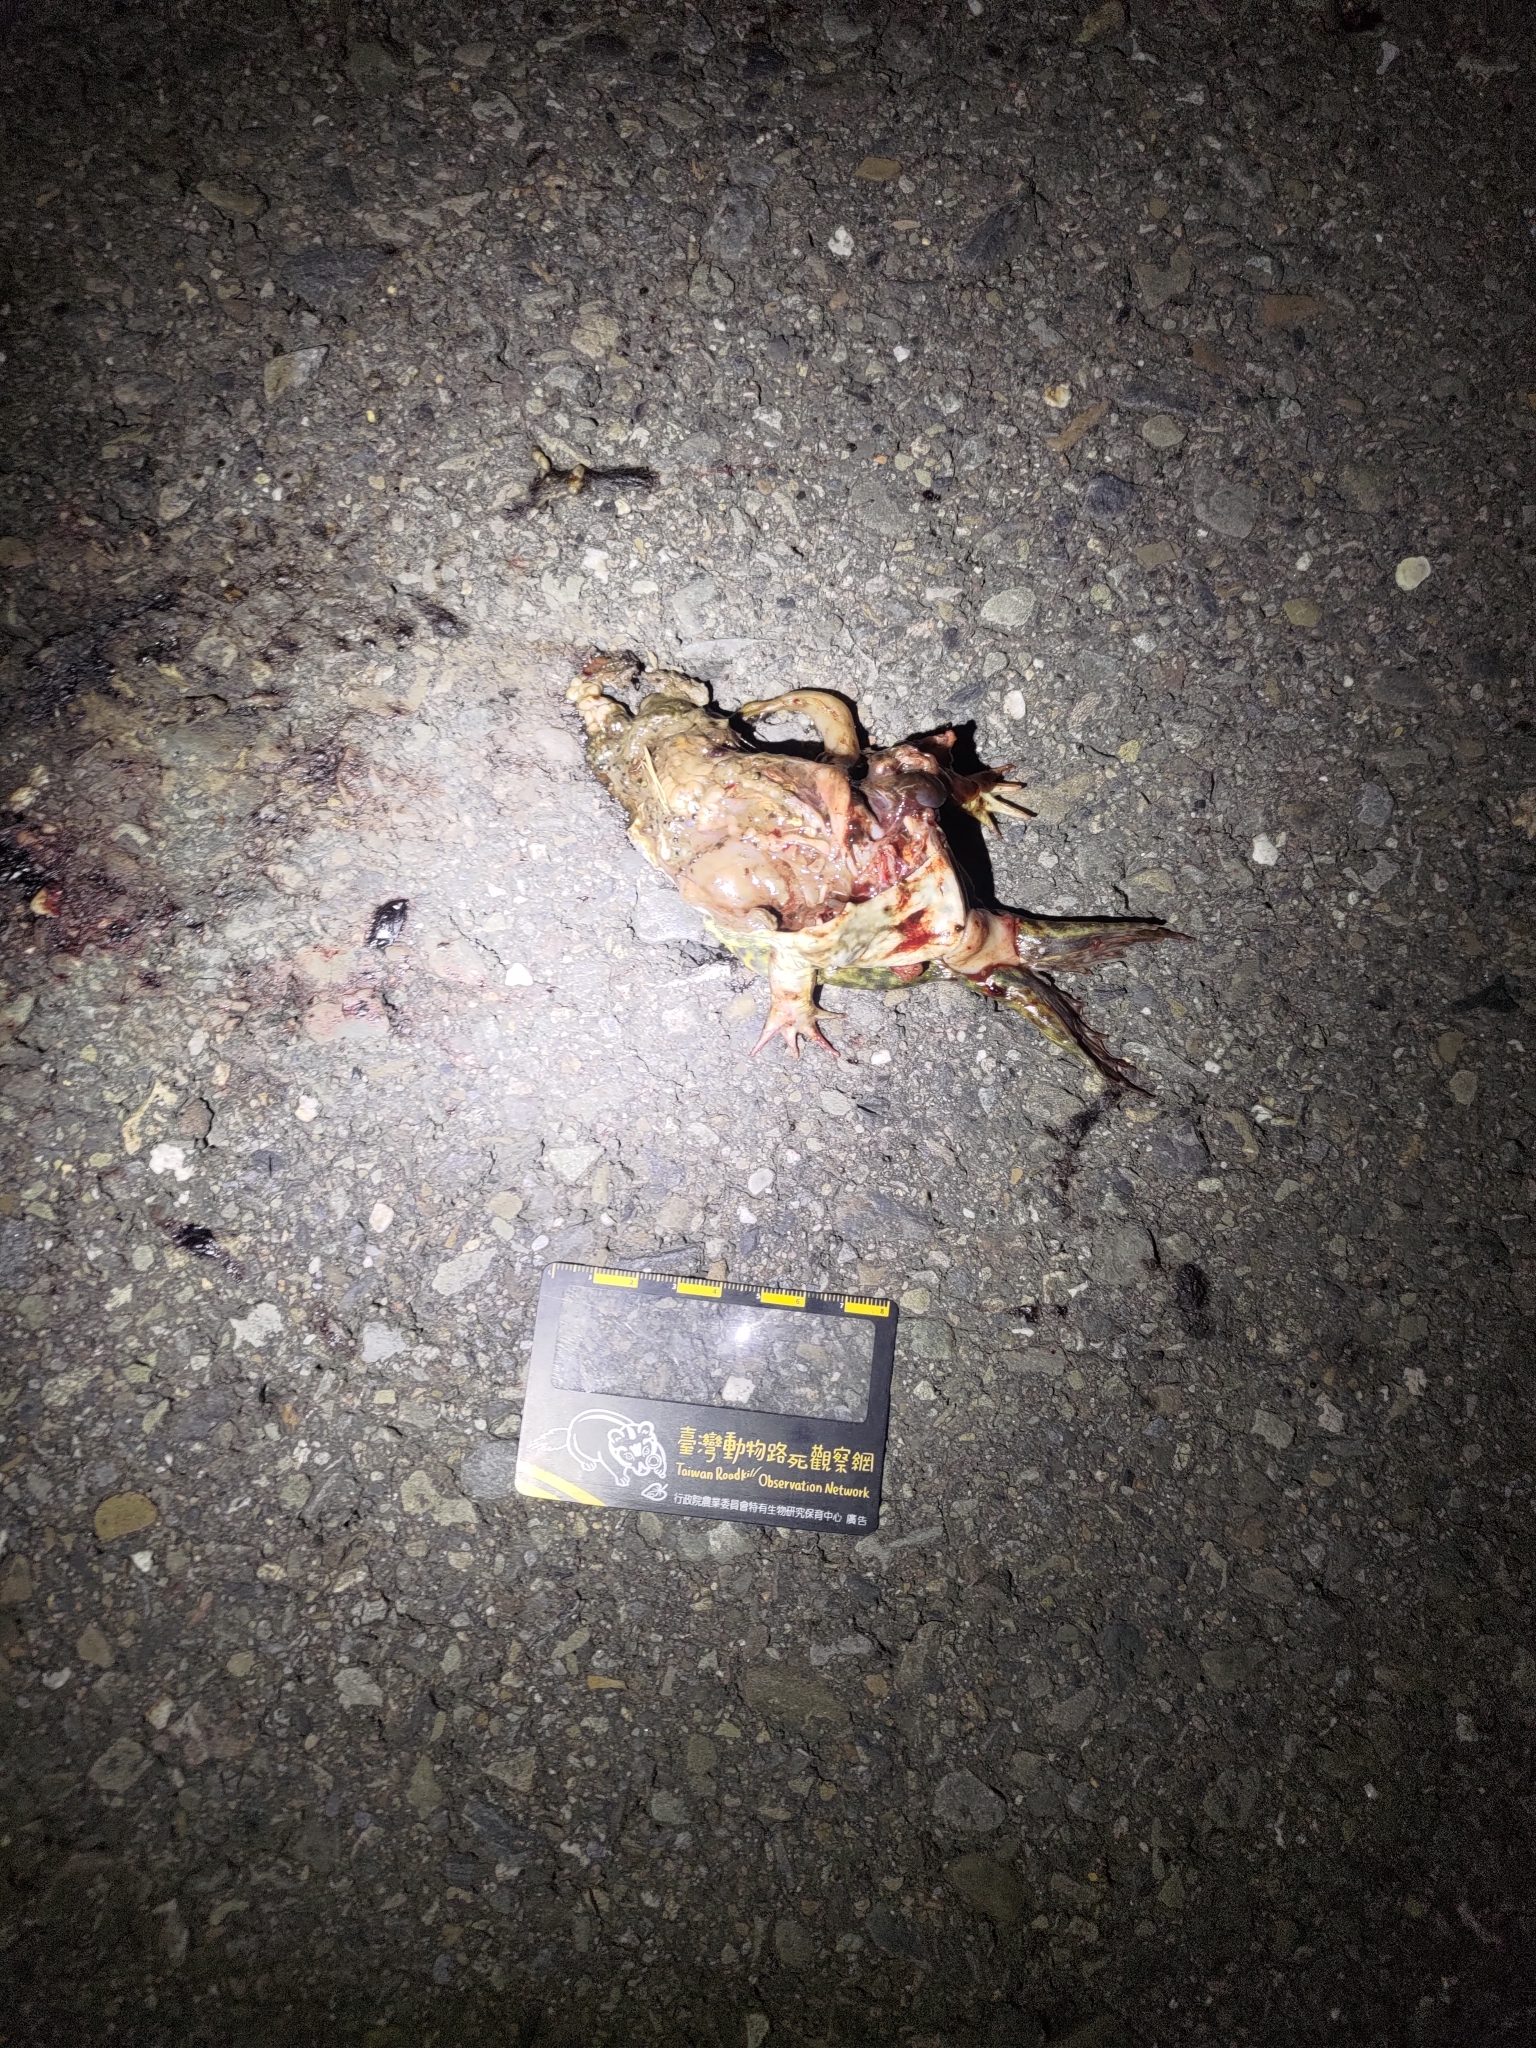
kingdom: Animalia
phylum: Chordata
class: Amphibia
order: Anura
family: Dicroglossidae
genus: Hoplobatrachus
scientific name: Hoplobatrachus rugulosus
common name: Chinese edible frog
